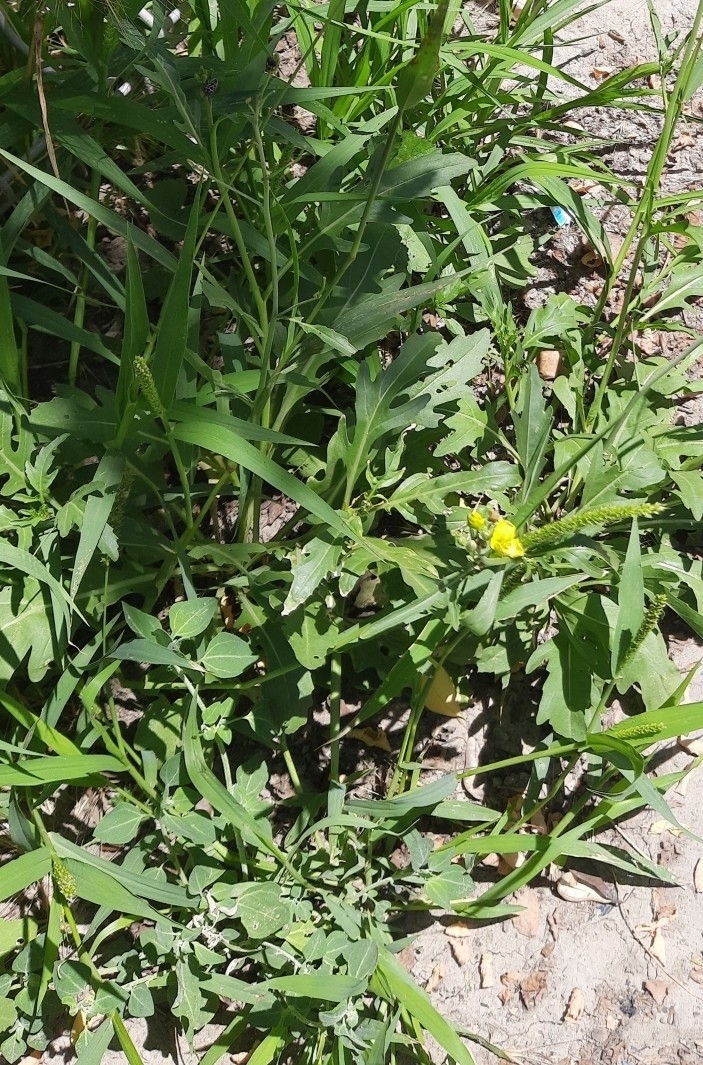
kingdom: Plantae
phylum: Tracheophyta
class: Magnoliopsida
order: Brassicales
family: Brassicaceae
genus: Diplotaxis
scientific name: Diplotaxis tenuifolia
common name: Perennial wall-rocket
